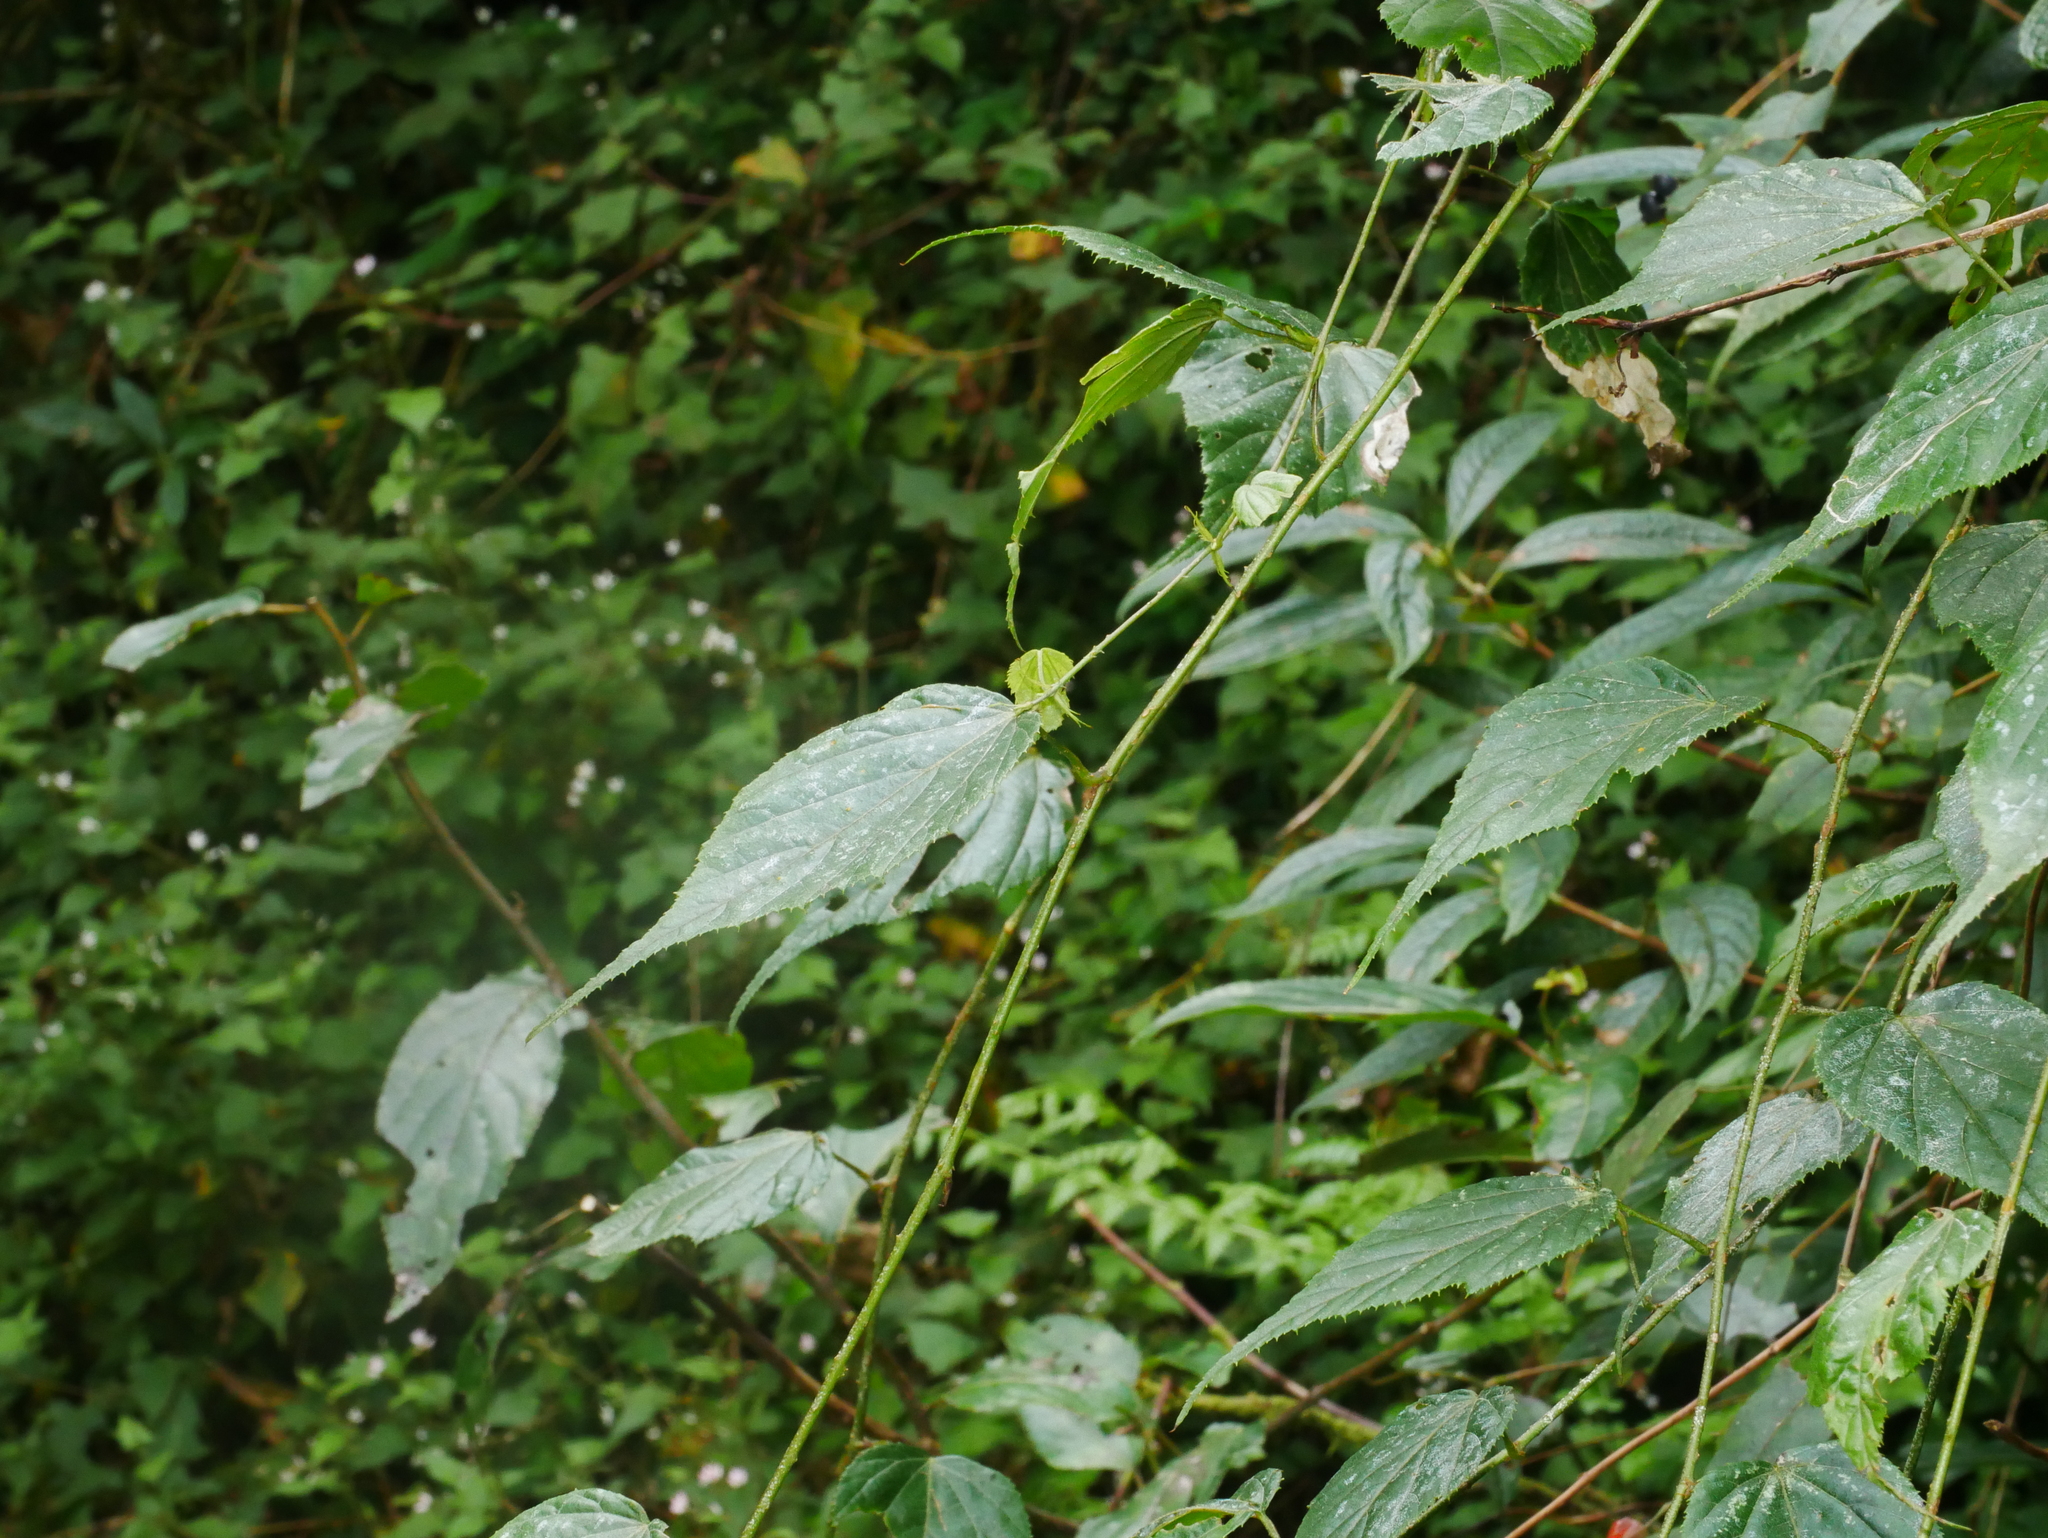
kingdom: Plantae
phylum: Tracheophyta
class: Magnoliopsida
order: Rosales
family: Rosaceae
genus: Rubus
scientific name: Rubus lambertianus
